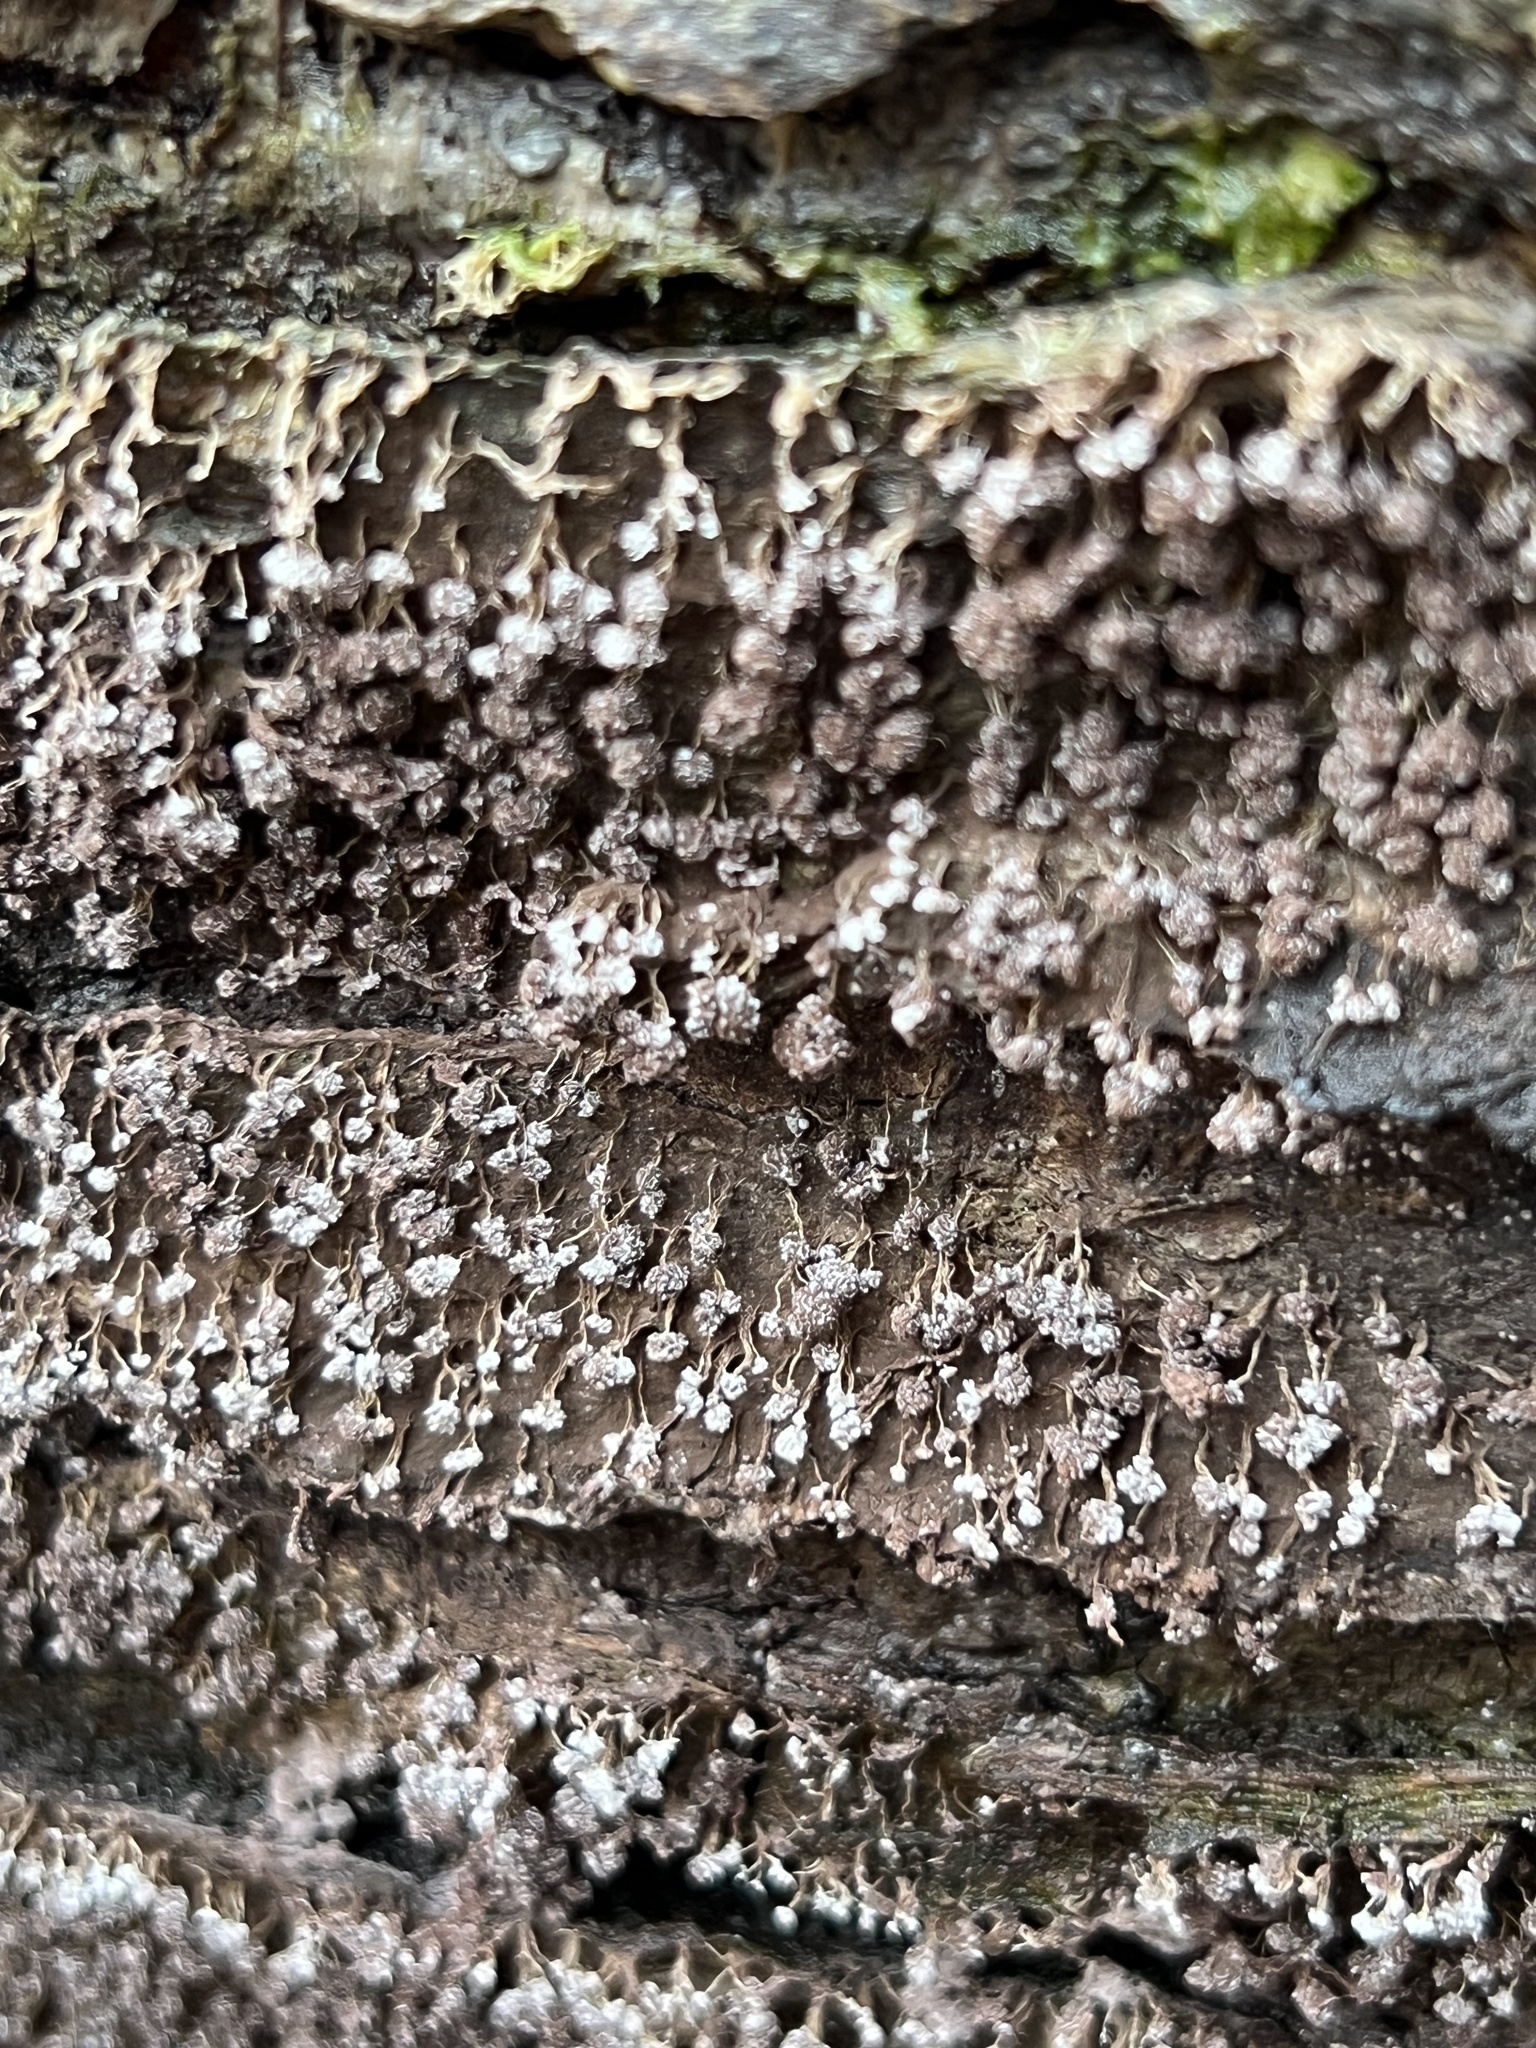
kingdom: Protozoa
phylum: Mycetozoa
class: Myxomycetes
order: Physarales
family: Physaraceae
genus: Physarum
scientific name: Physarum polycephalum
